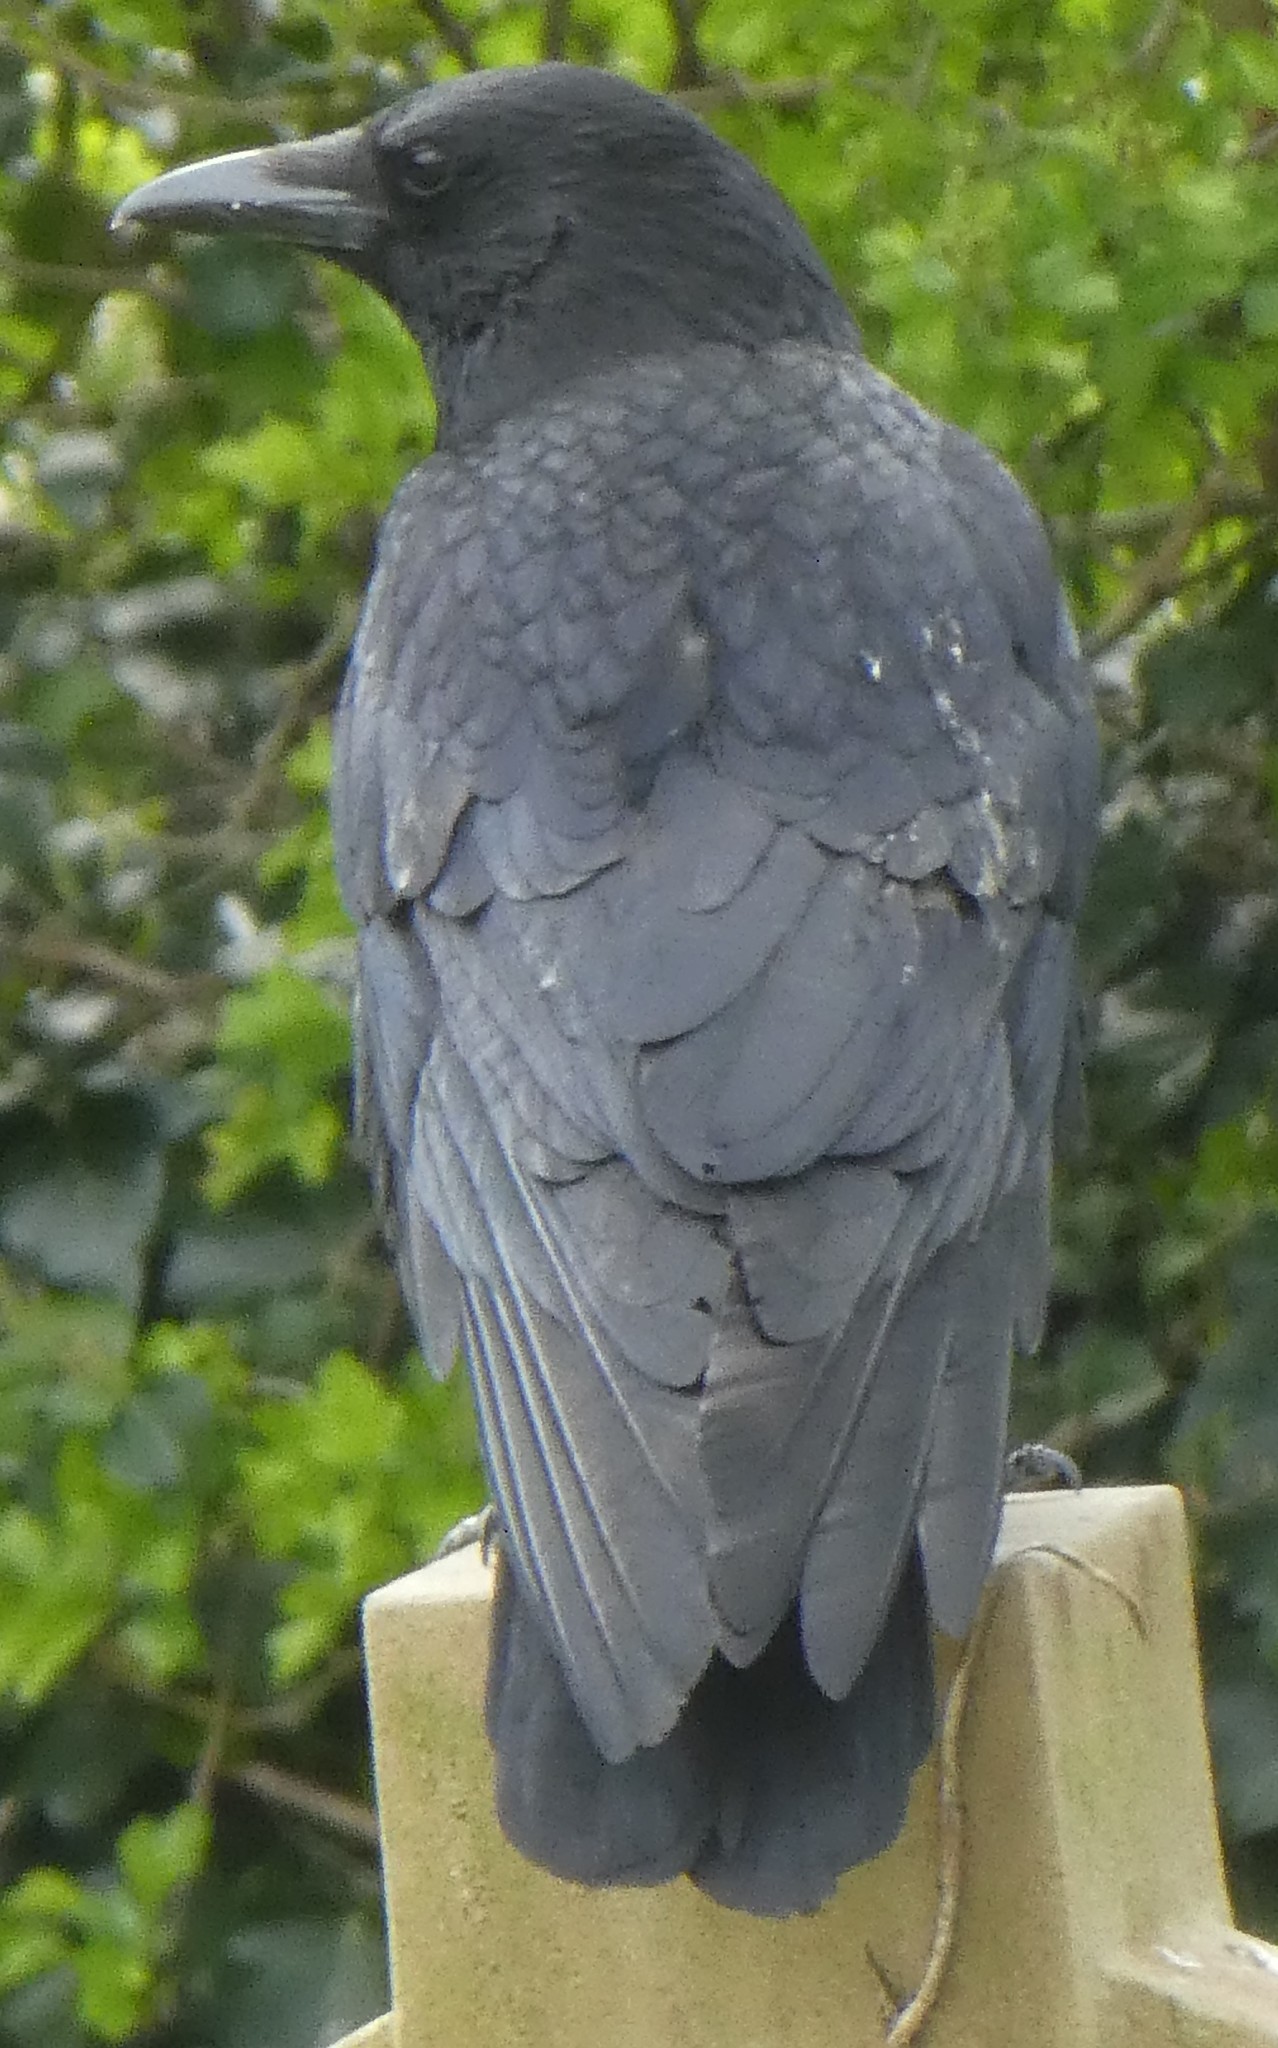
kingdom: Animalia
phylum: Chordata
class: Aves
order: Passeriformes
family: Corvidae
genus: Corvus
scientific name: Corvus corone
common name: Carrion crow
